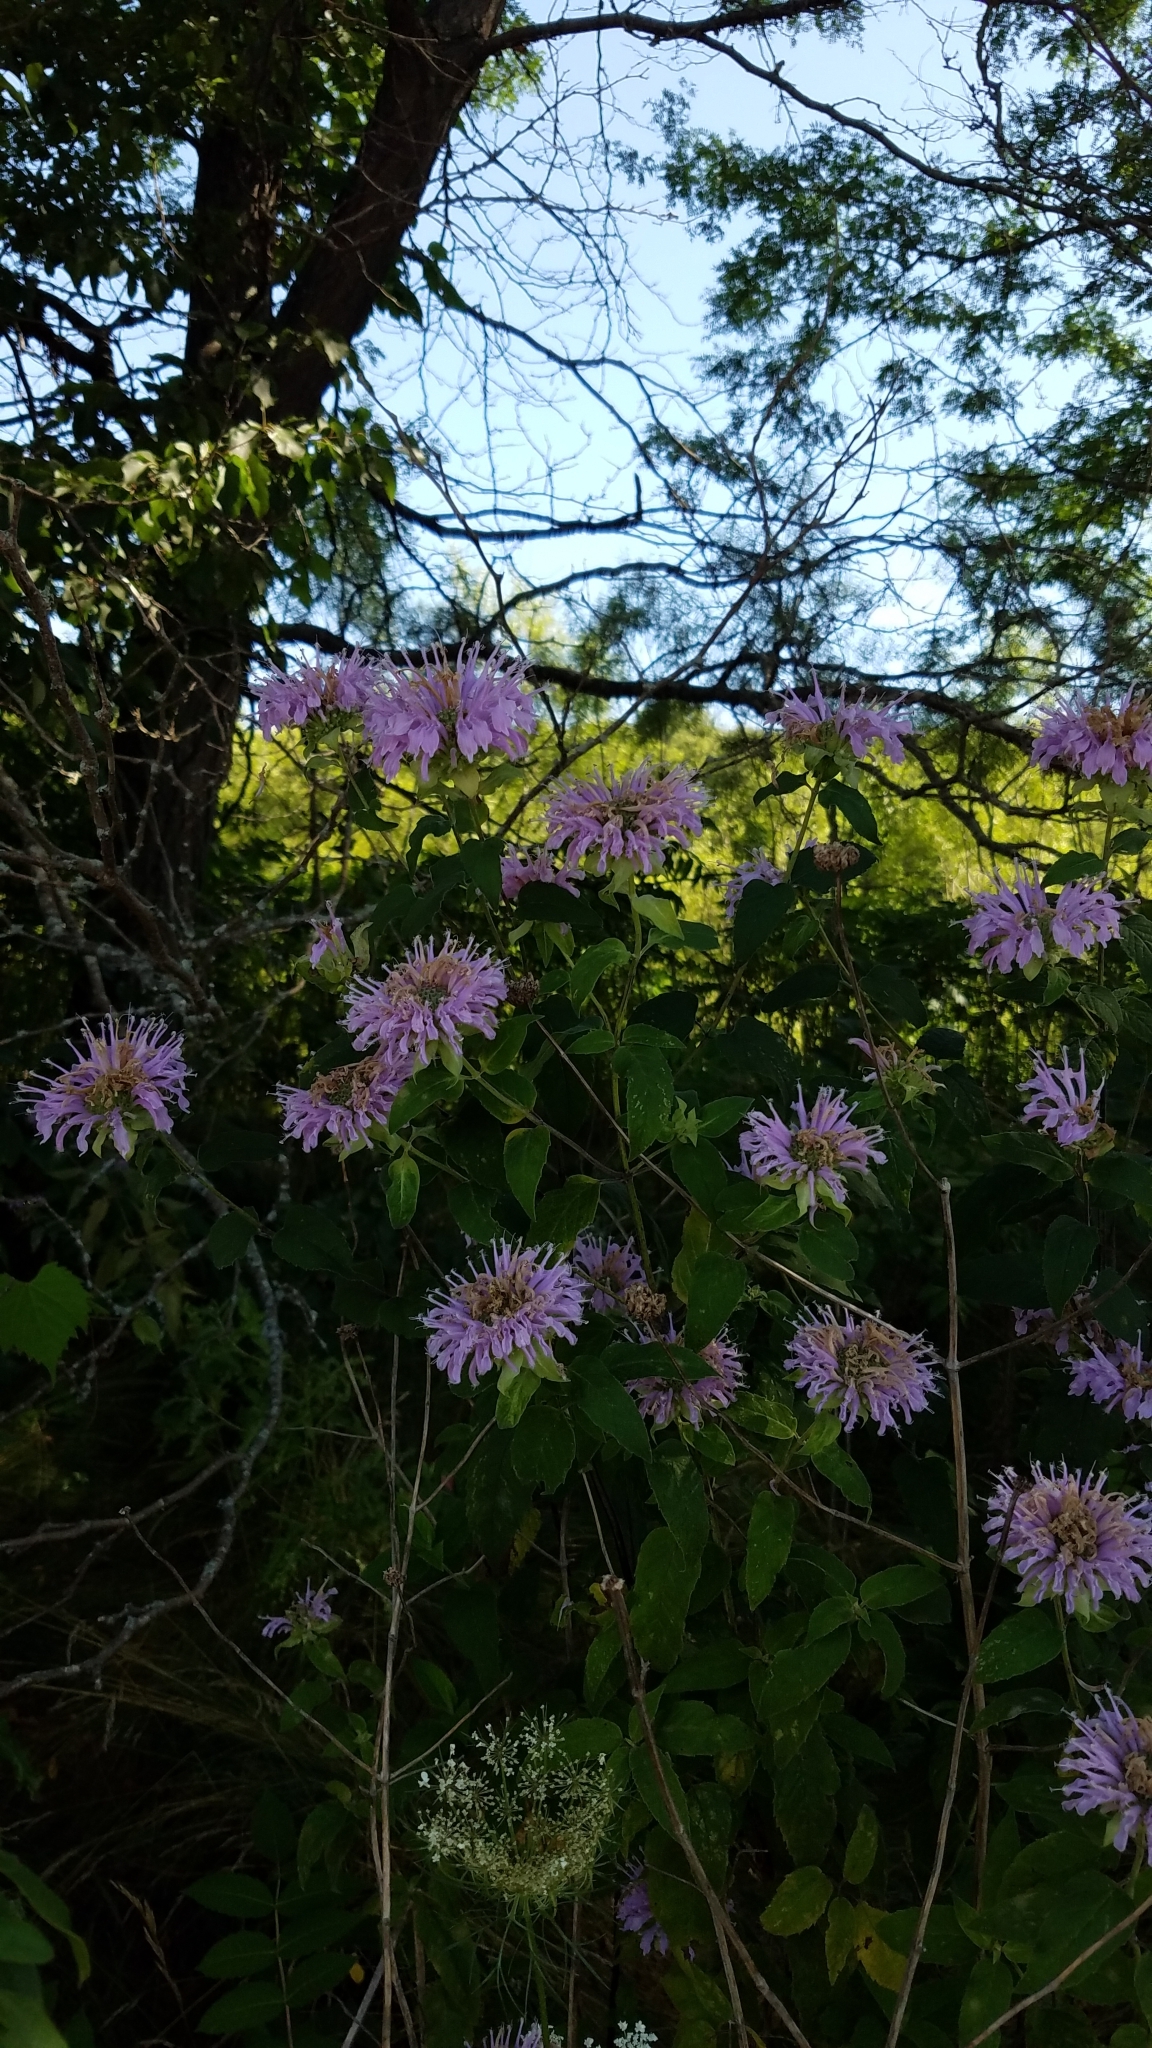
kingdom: Plantae
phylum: Tracheophyta
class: Magnoliopsida
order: Lamiales
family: Lamiaceae
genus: Monarda
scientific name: Monarda fistulosa
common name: Purple beebalm
